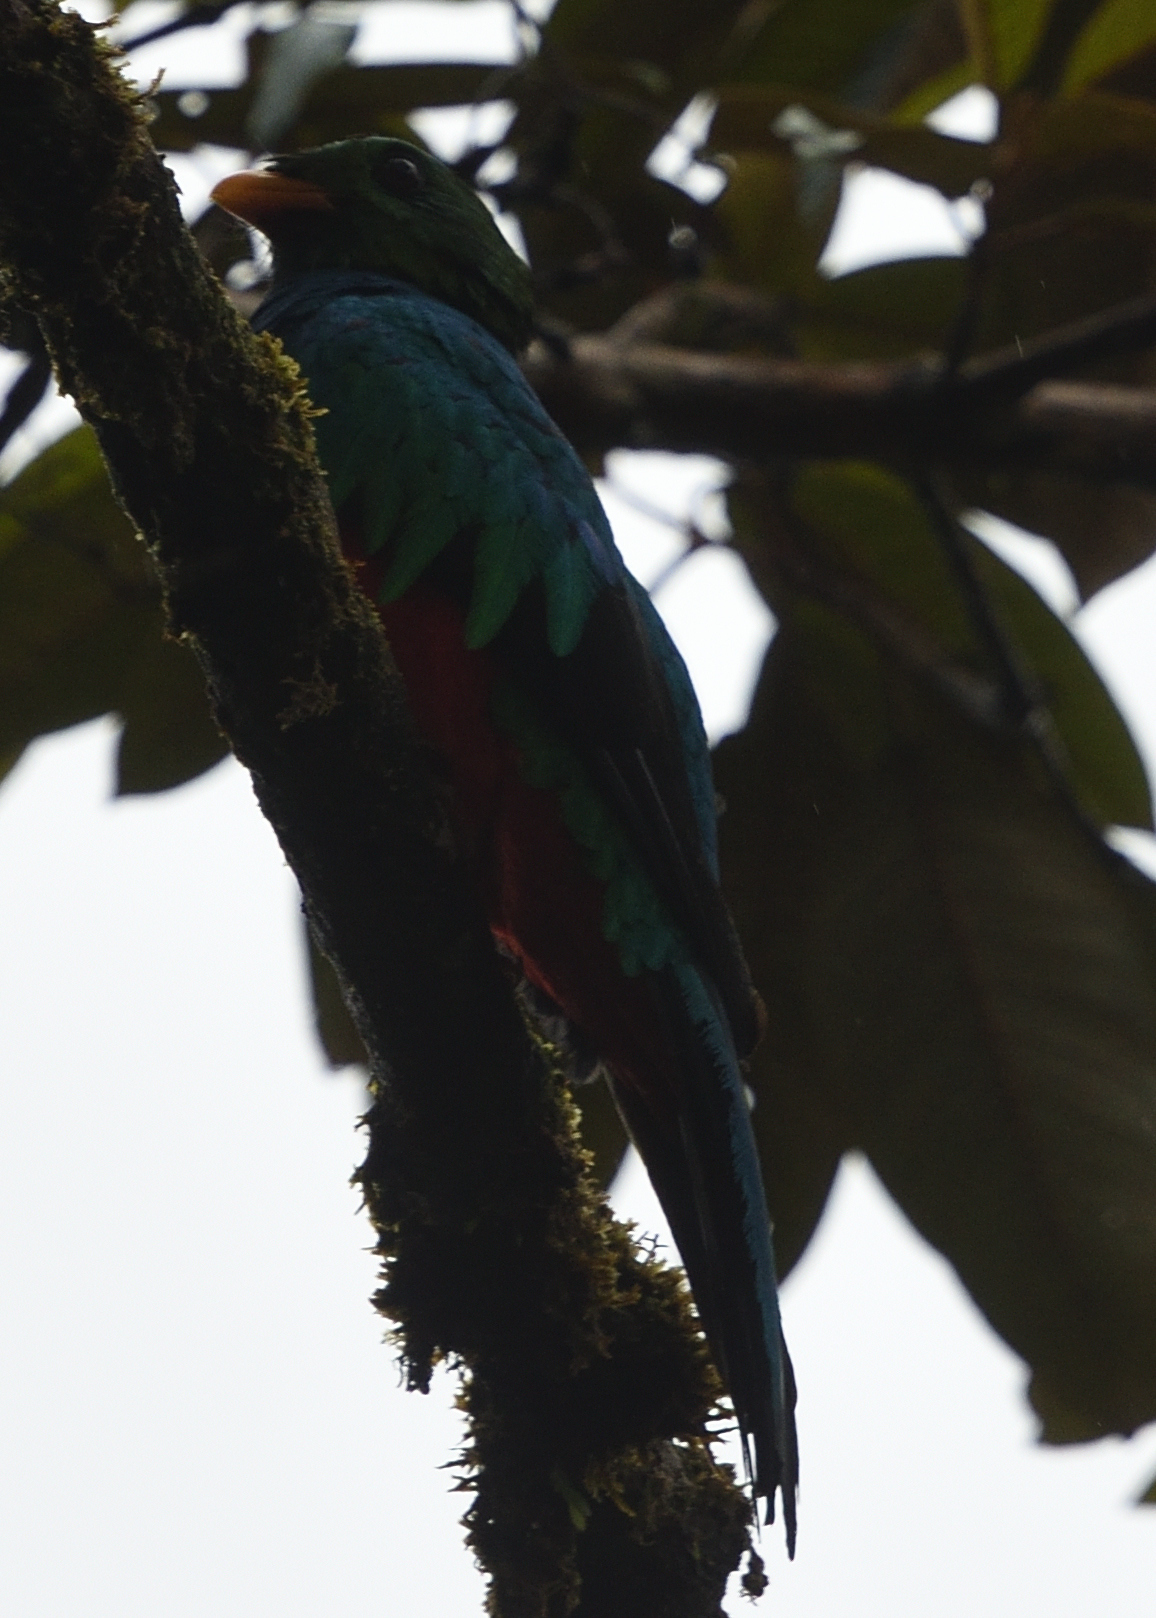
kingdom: Animalia
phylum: Chordata
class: Aves
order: Trogoniformes
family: Trogonidae
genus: Pharomachrus
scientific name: Pharomachrus auriceps
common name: Golden-headed quetzal
